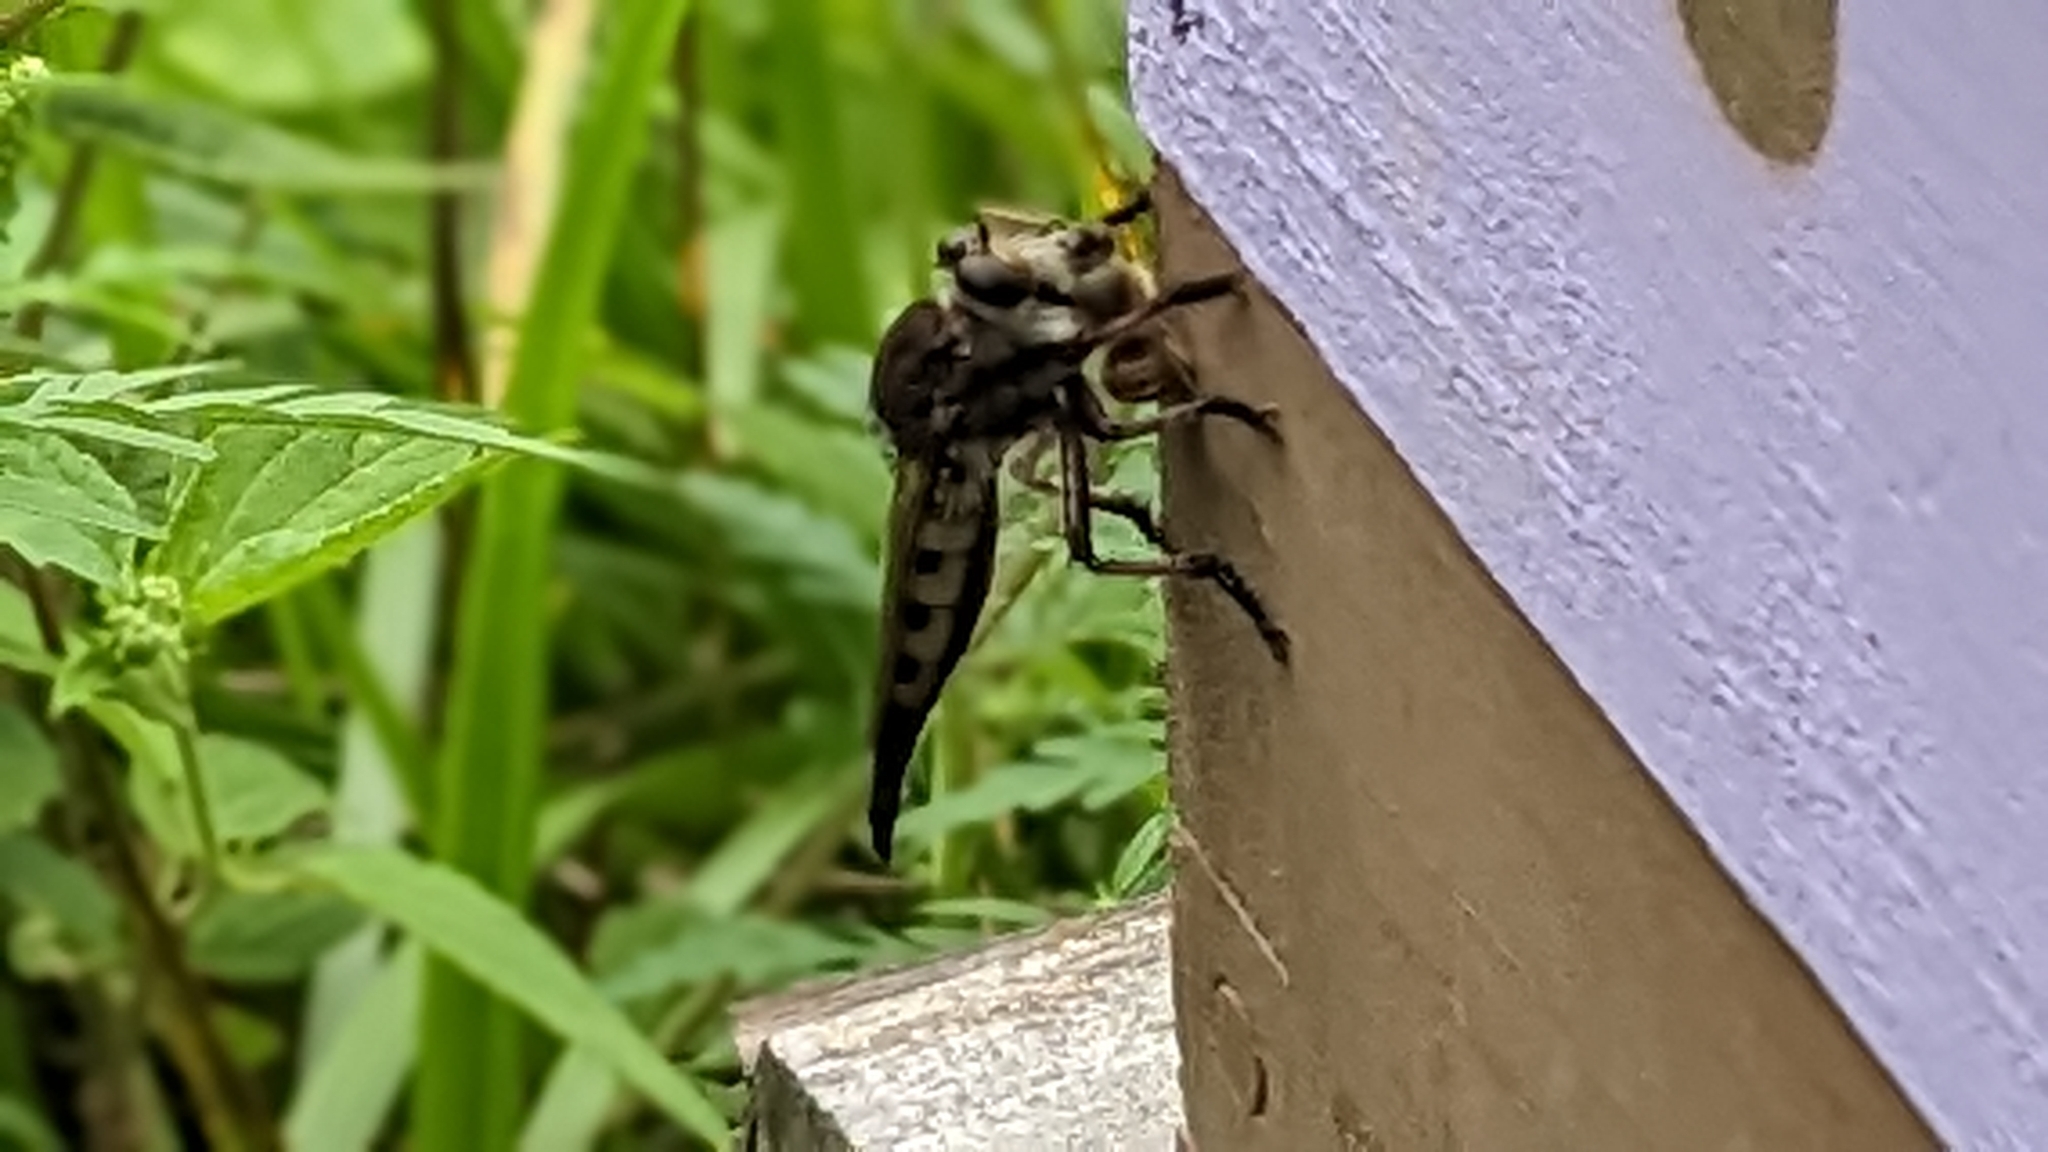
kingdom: Animalia
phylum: Arthropoda
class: Insecta
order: Diptera
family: Asilidae
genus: Promachus
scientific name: Promachus hinei
